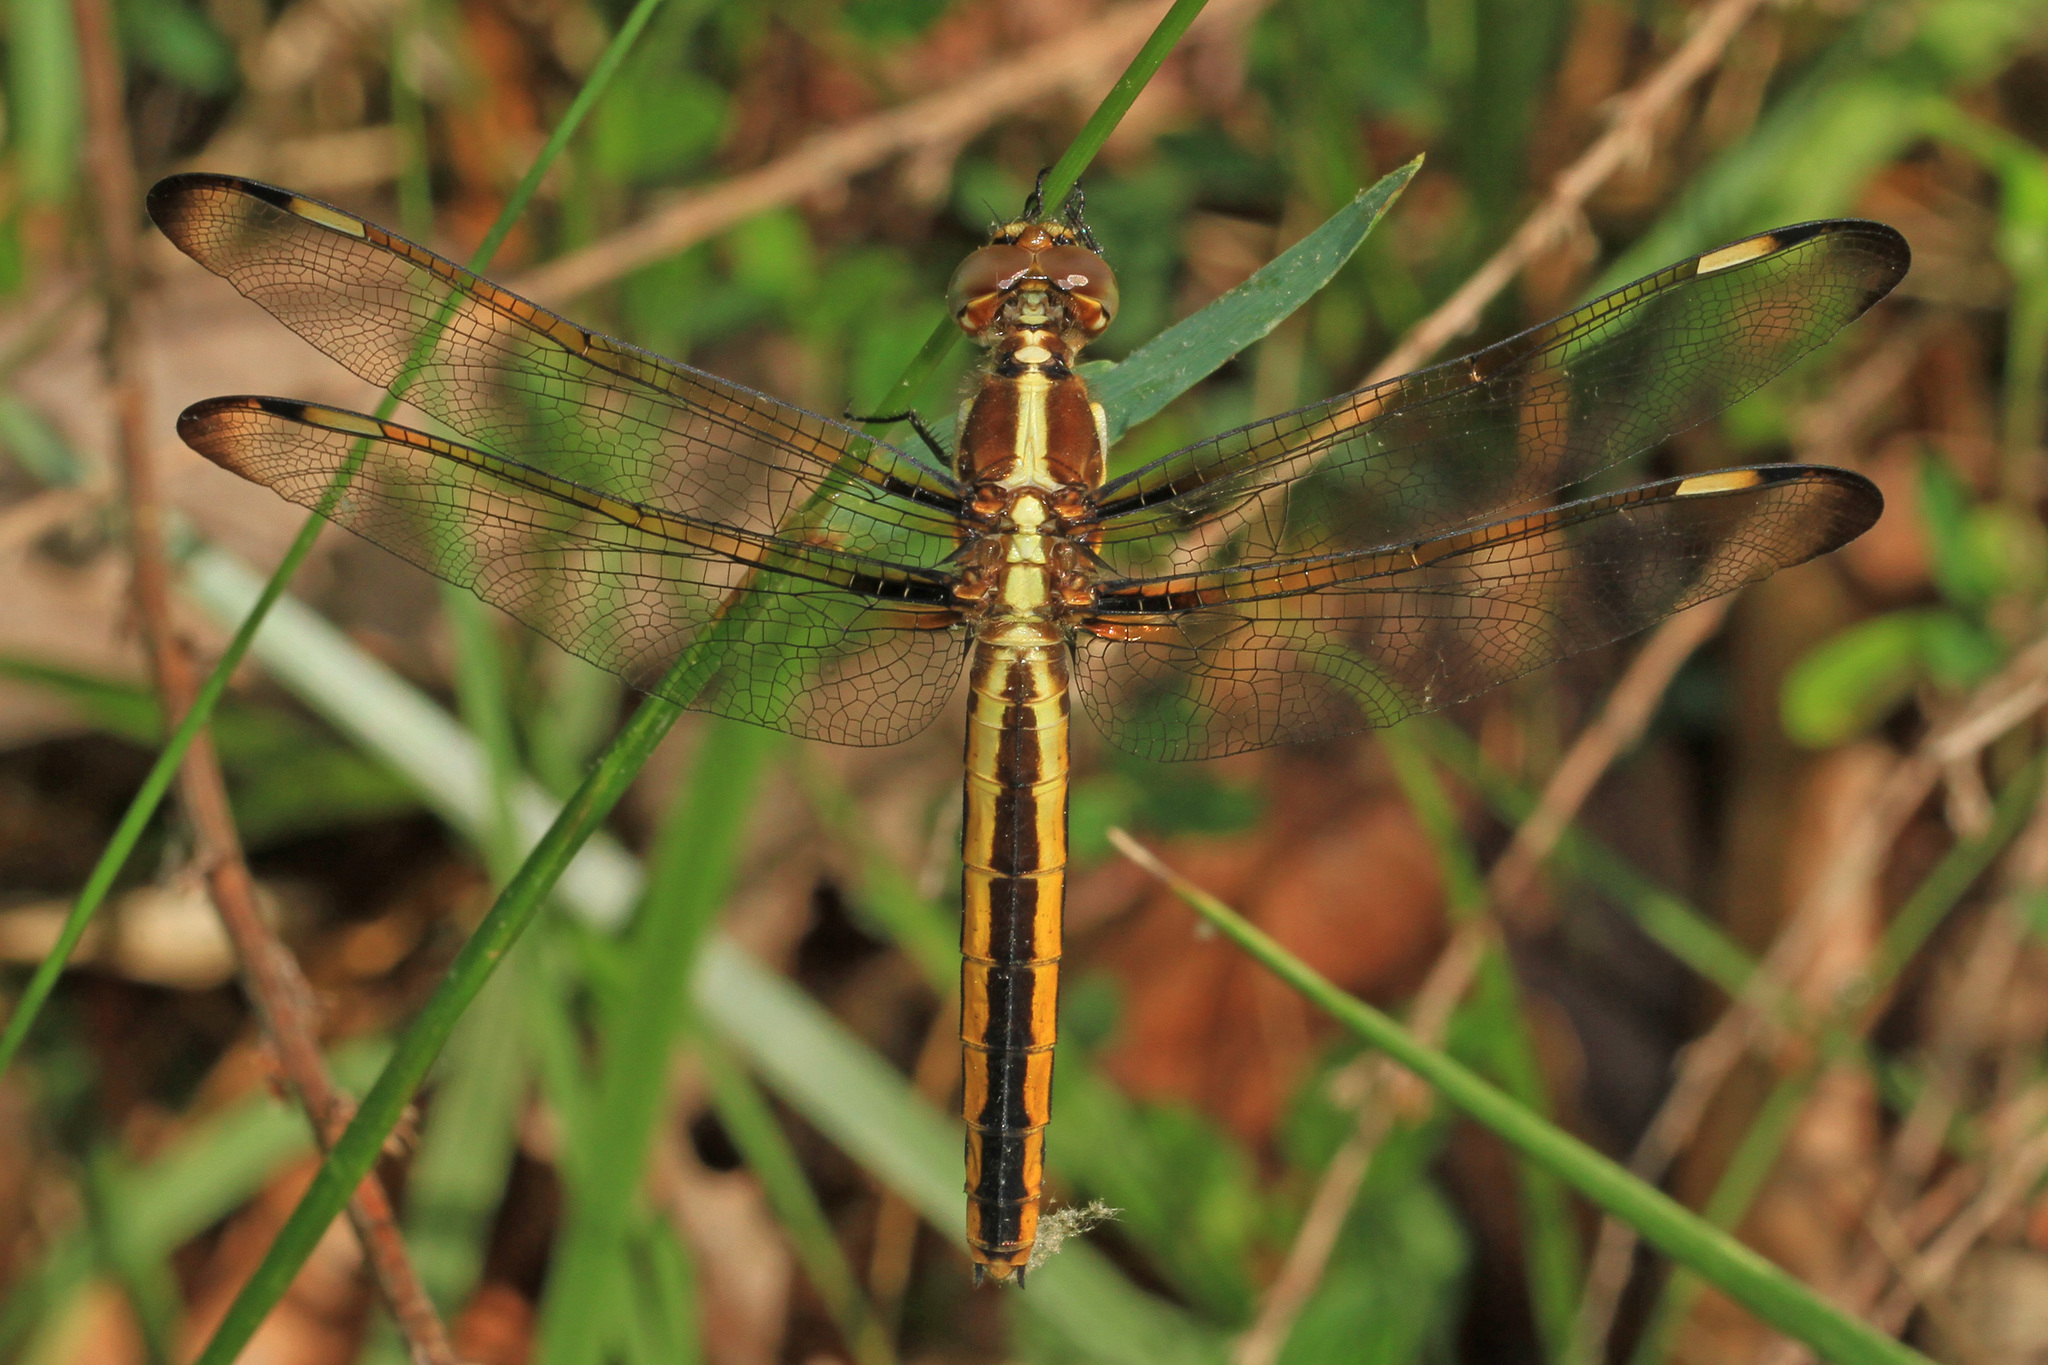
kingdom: Animalia
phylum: Arthropoda
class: Insecta
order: Odonata
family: Libellulidae
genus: Libellula
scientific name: Libellula cyanea
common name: Spangled skimmer
